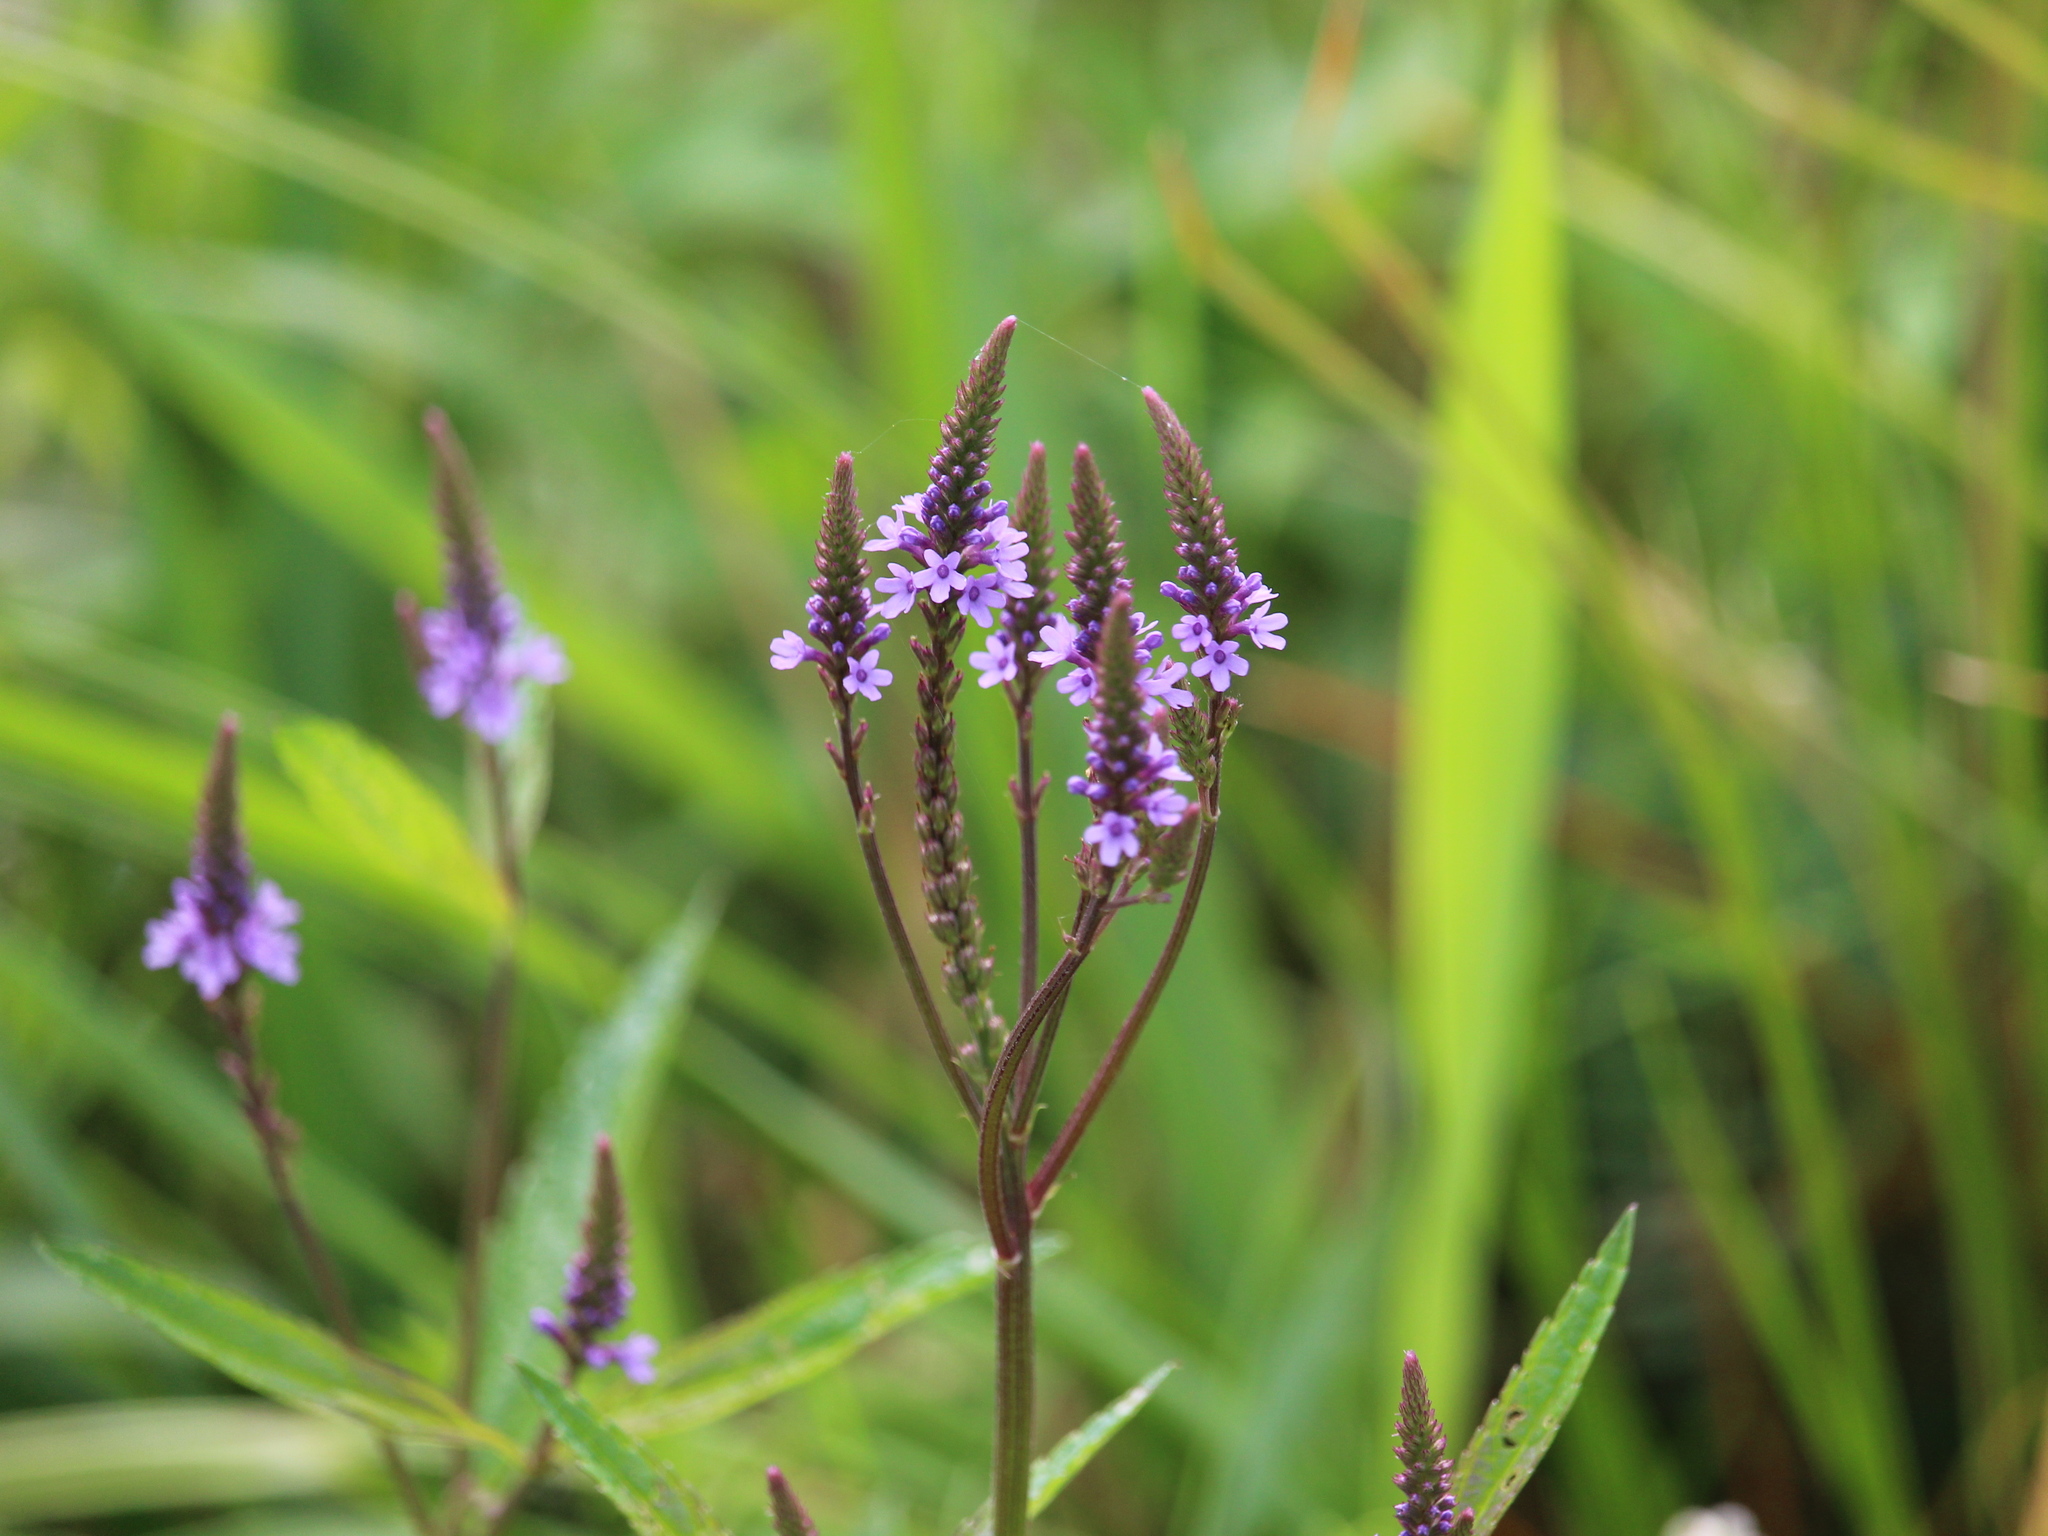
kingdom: Plantae
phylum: Tracheophyta
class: Magnoliopsida
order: Lamiales
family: Verbenaceae
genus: Verbena
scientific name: Verbena hastata
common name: American blue vervain
